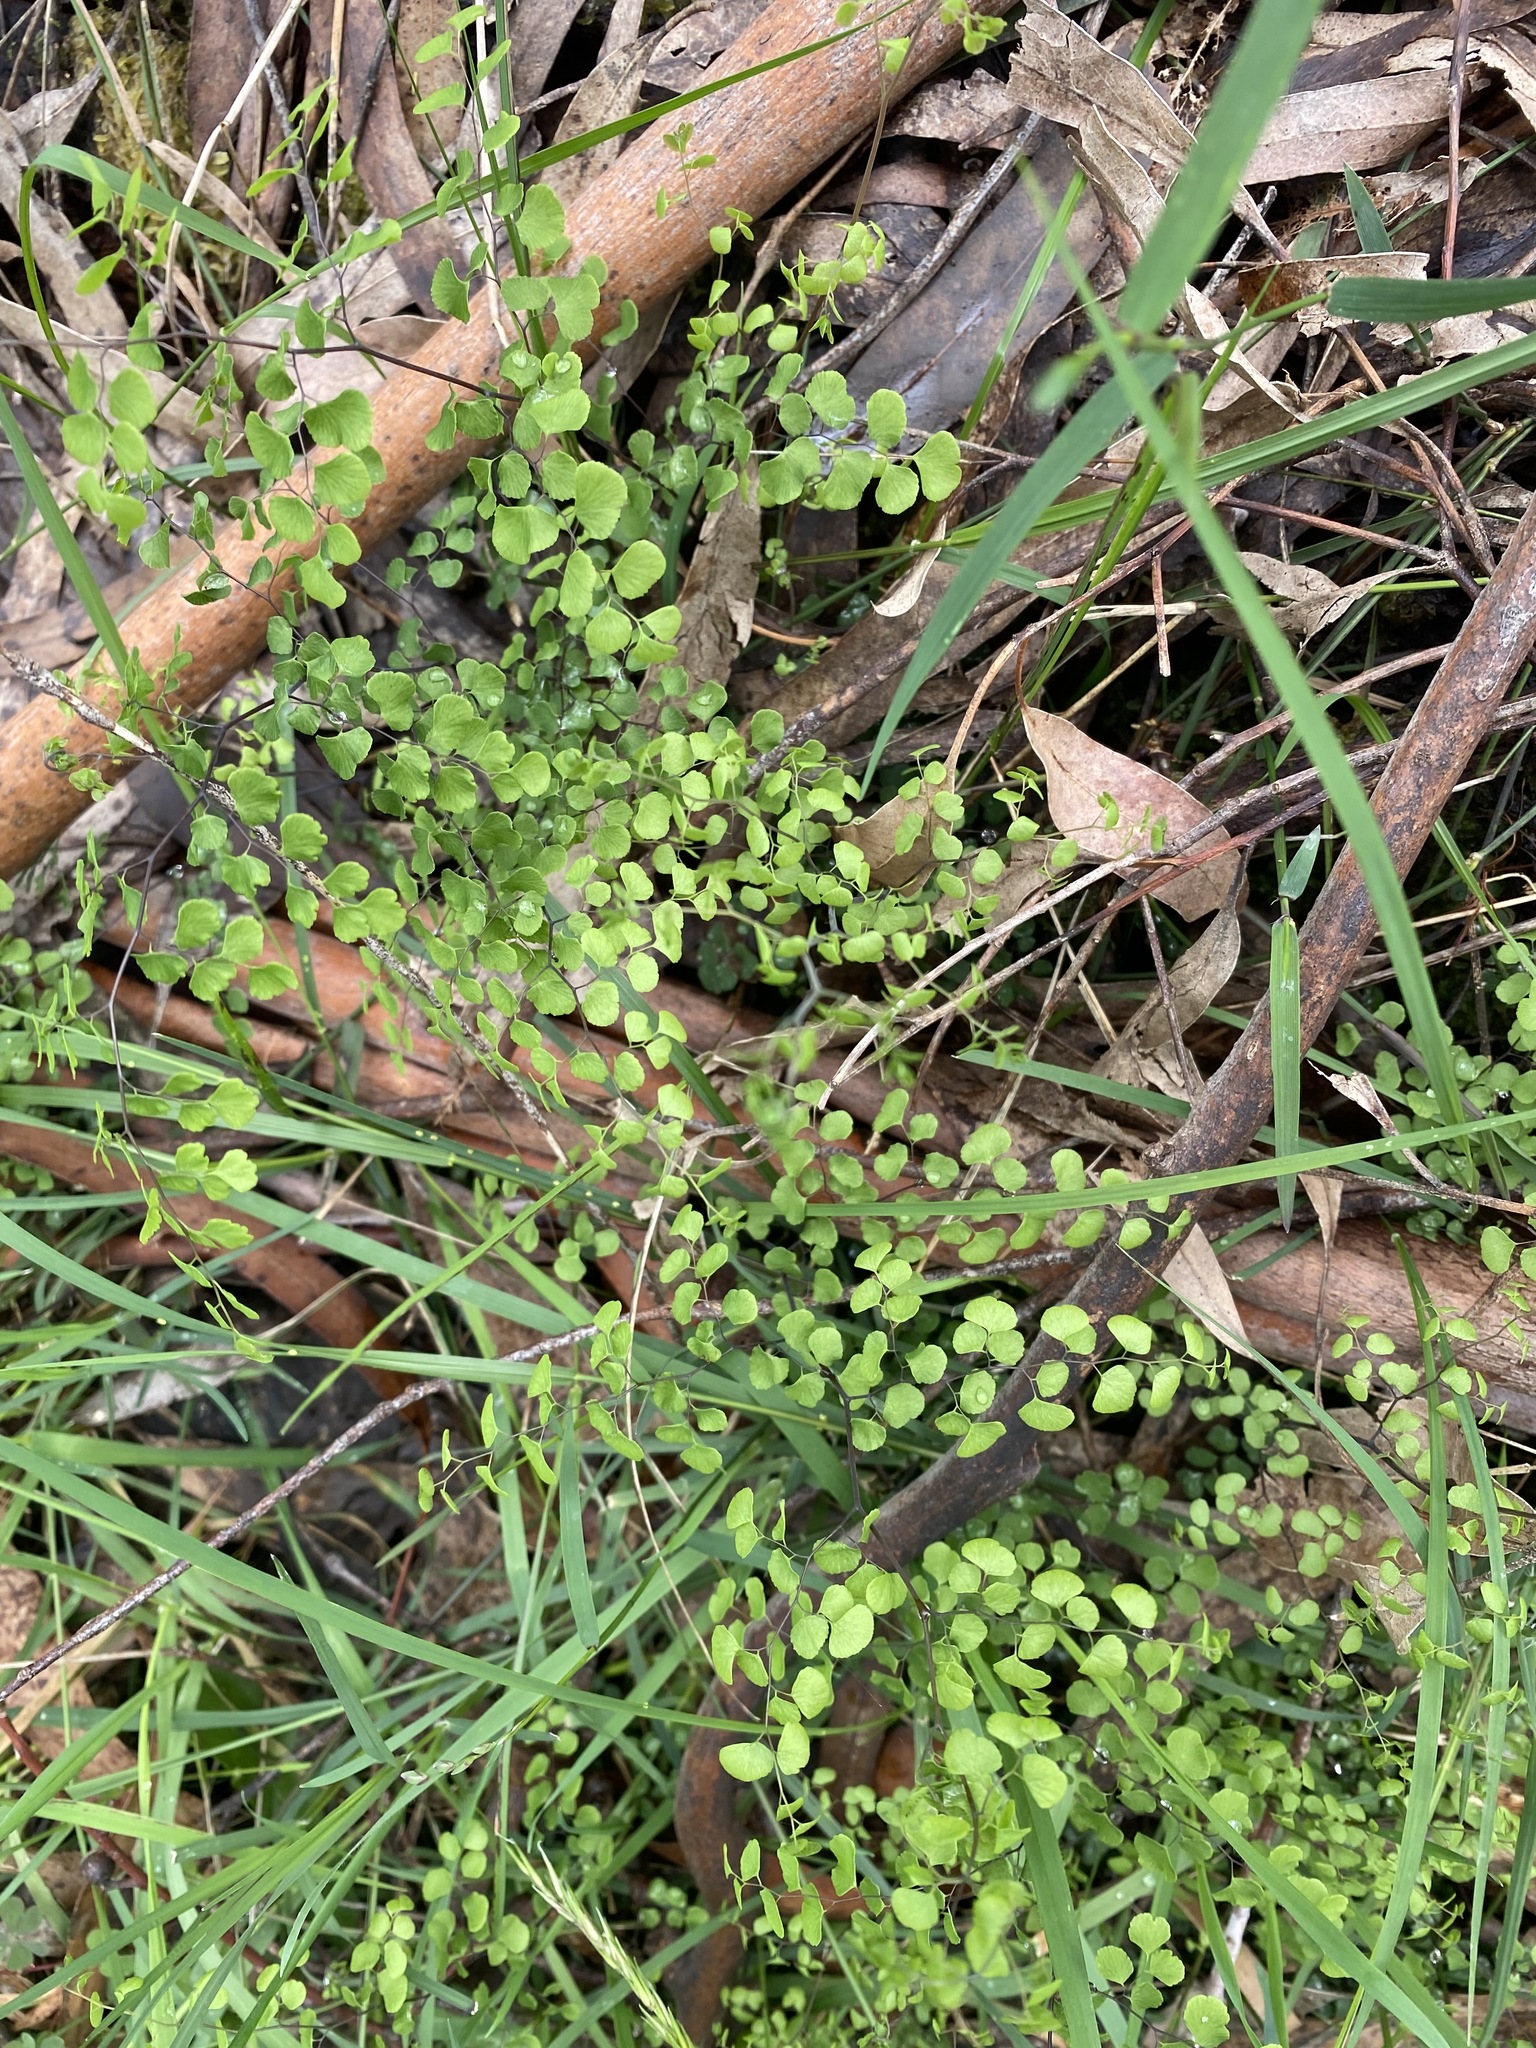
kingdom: Plantae
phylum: Tracheophyta
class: Polypodiopsida
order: Polypodiales
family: Pteridaceae
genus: Adiantum
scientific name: Adiantum aethiopicum
